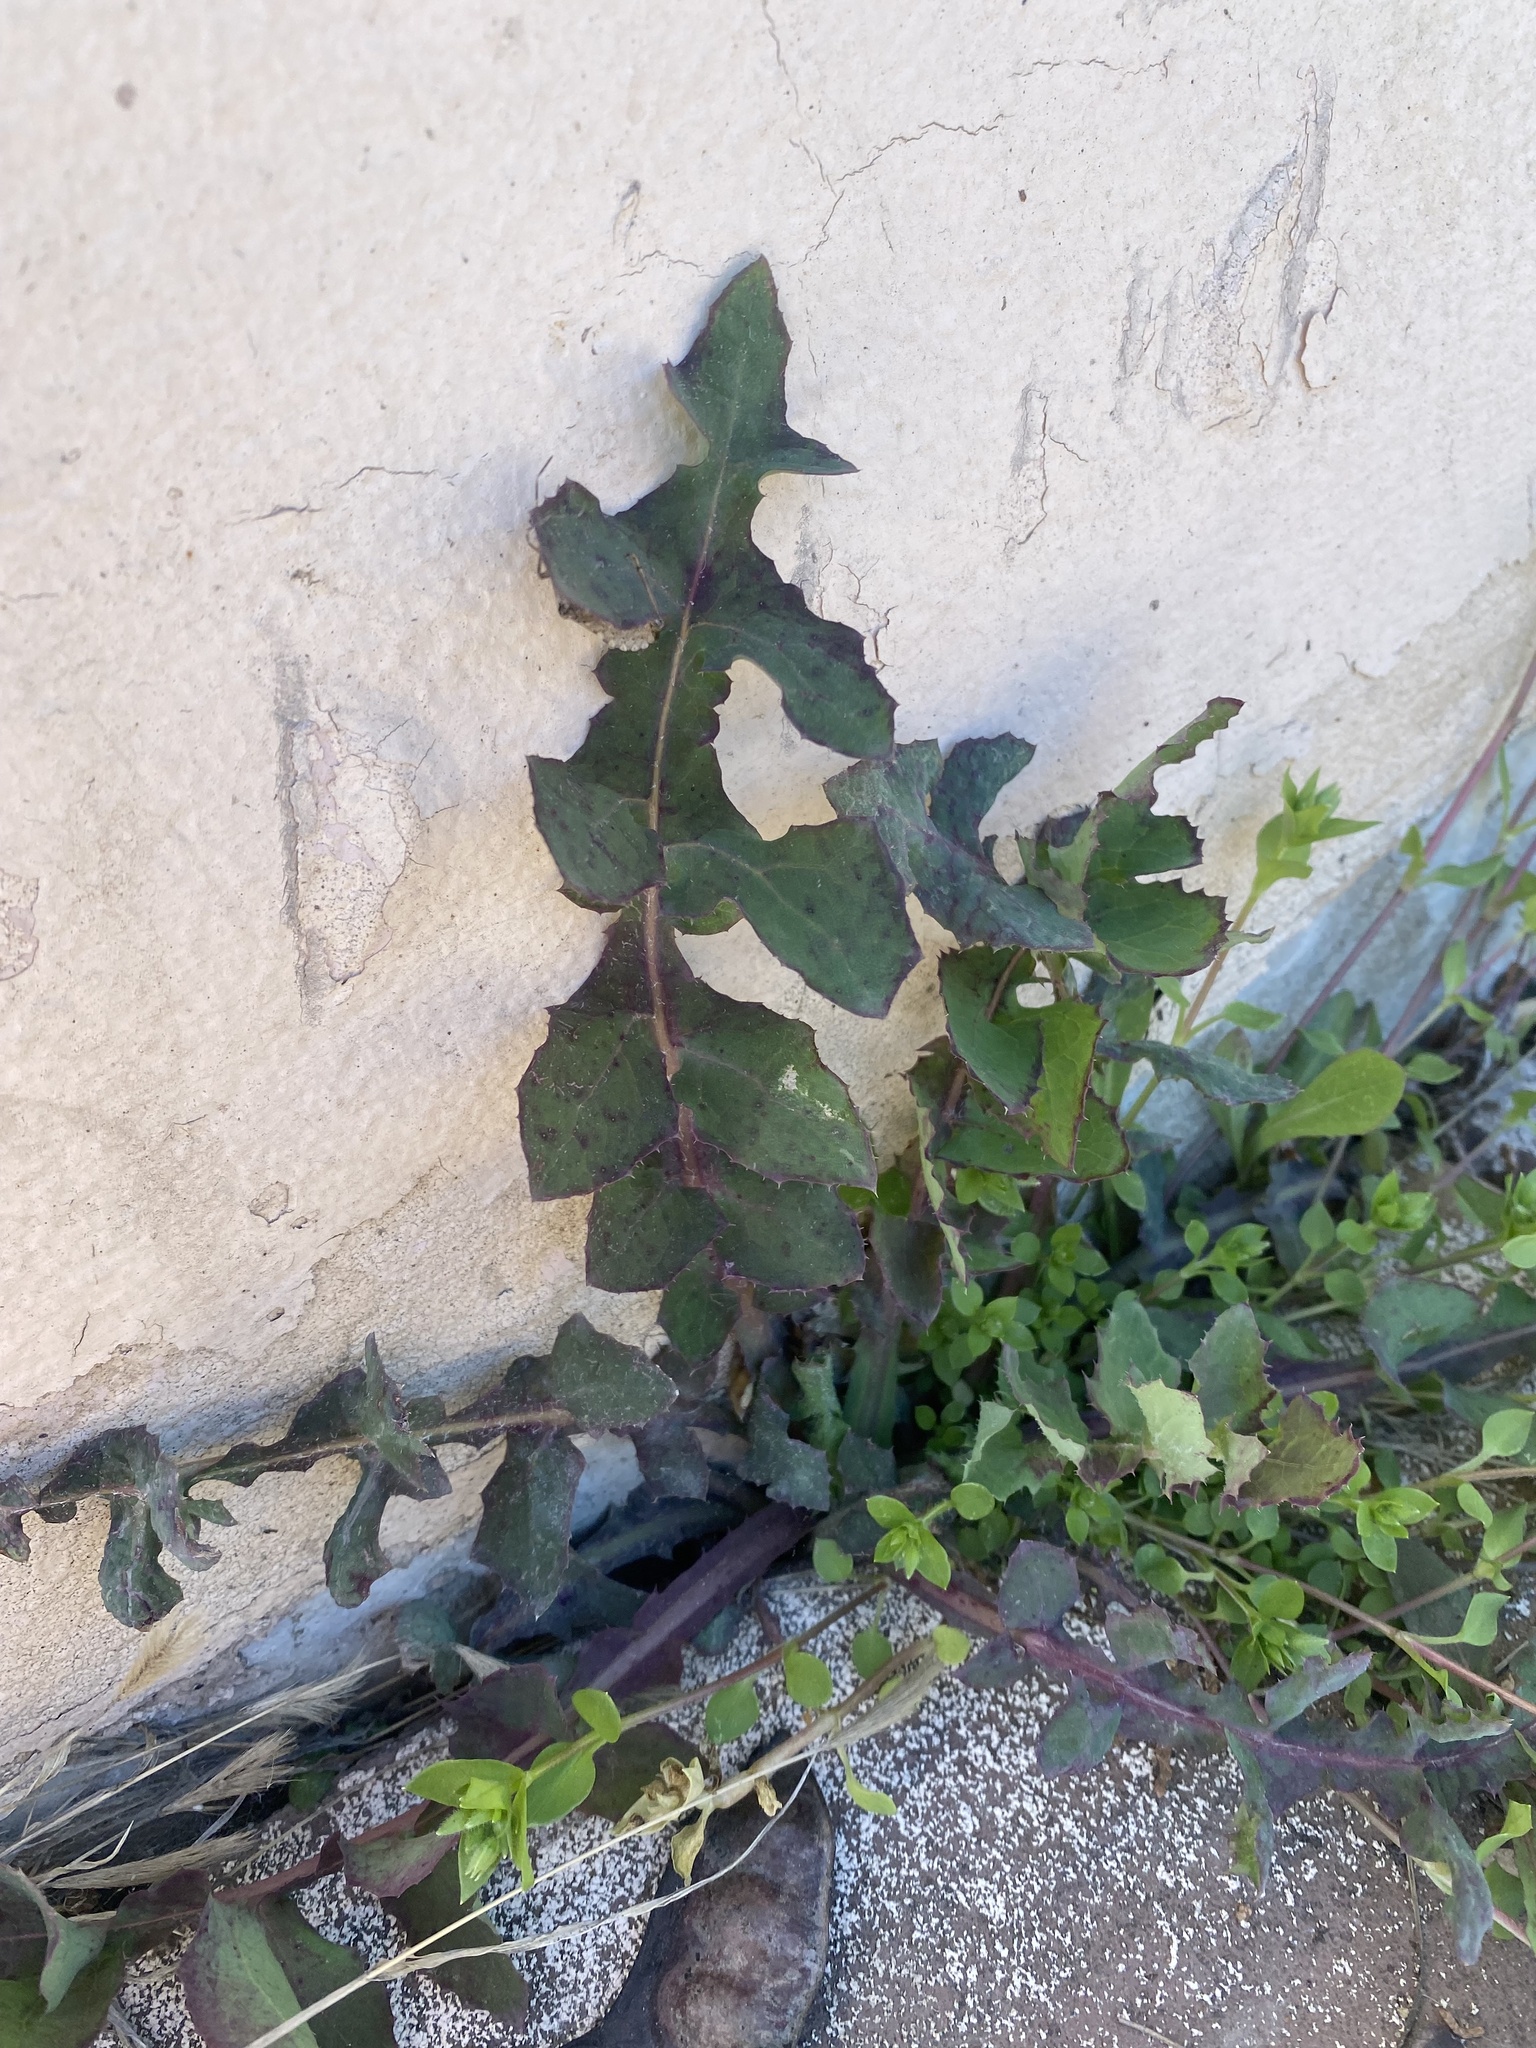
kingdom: Plantae
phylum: Tracheophyta
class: Magnoliopsida
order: Asterales
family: Asteraceae
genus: Sonchus
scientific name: Sonchus oleraceus
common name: Common sowthistle
